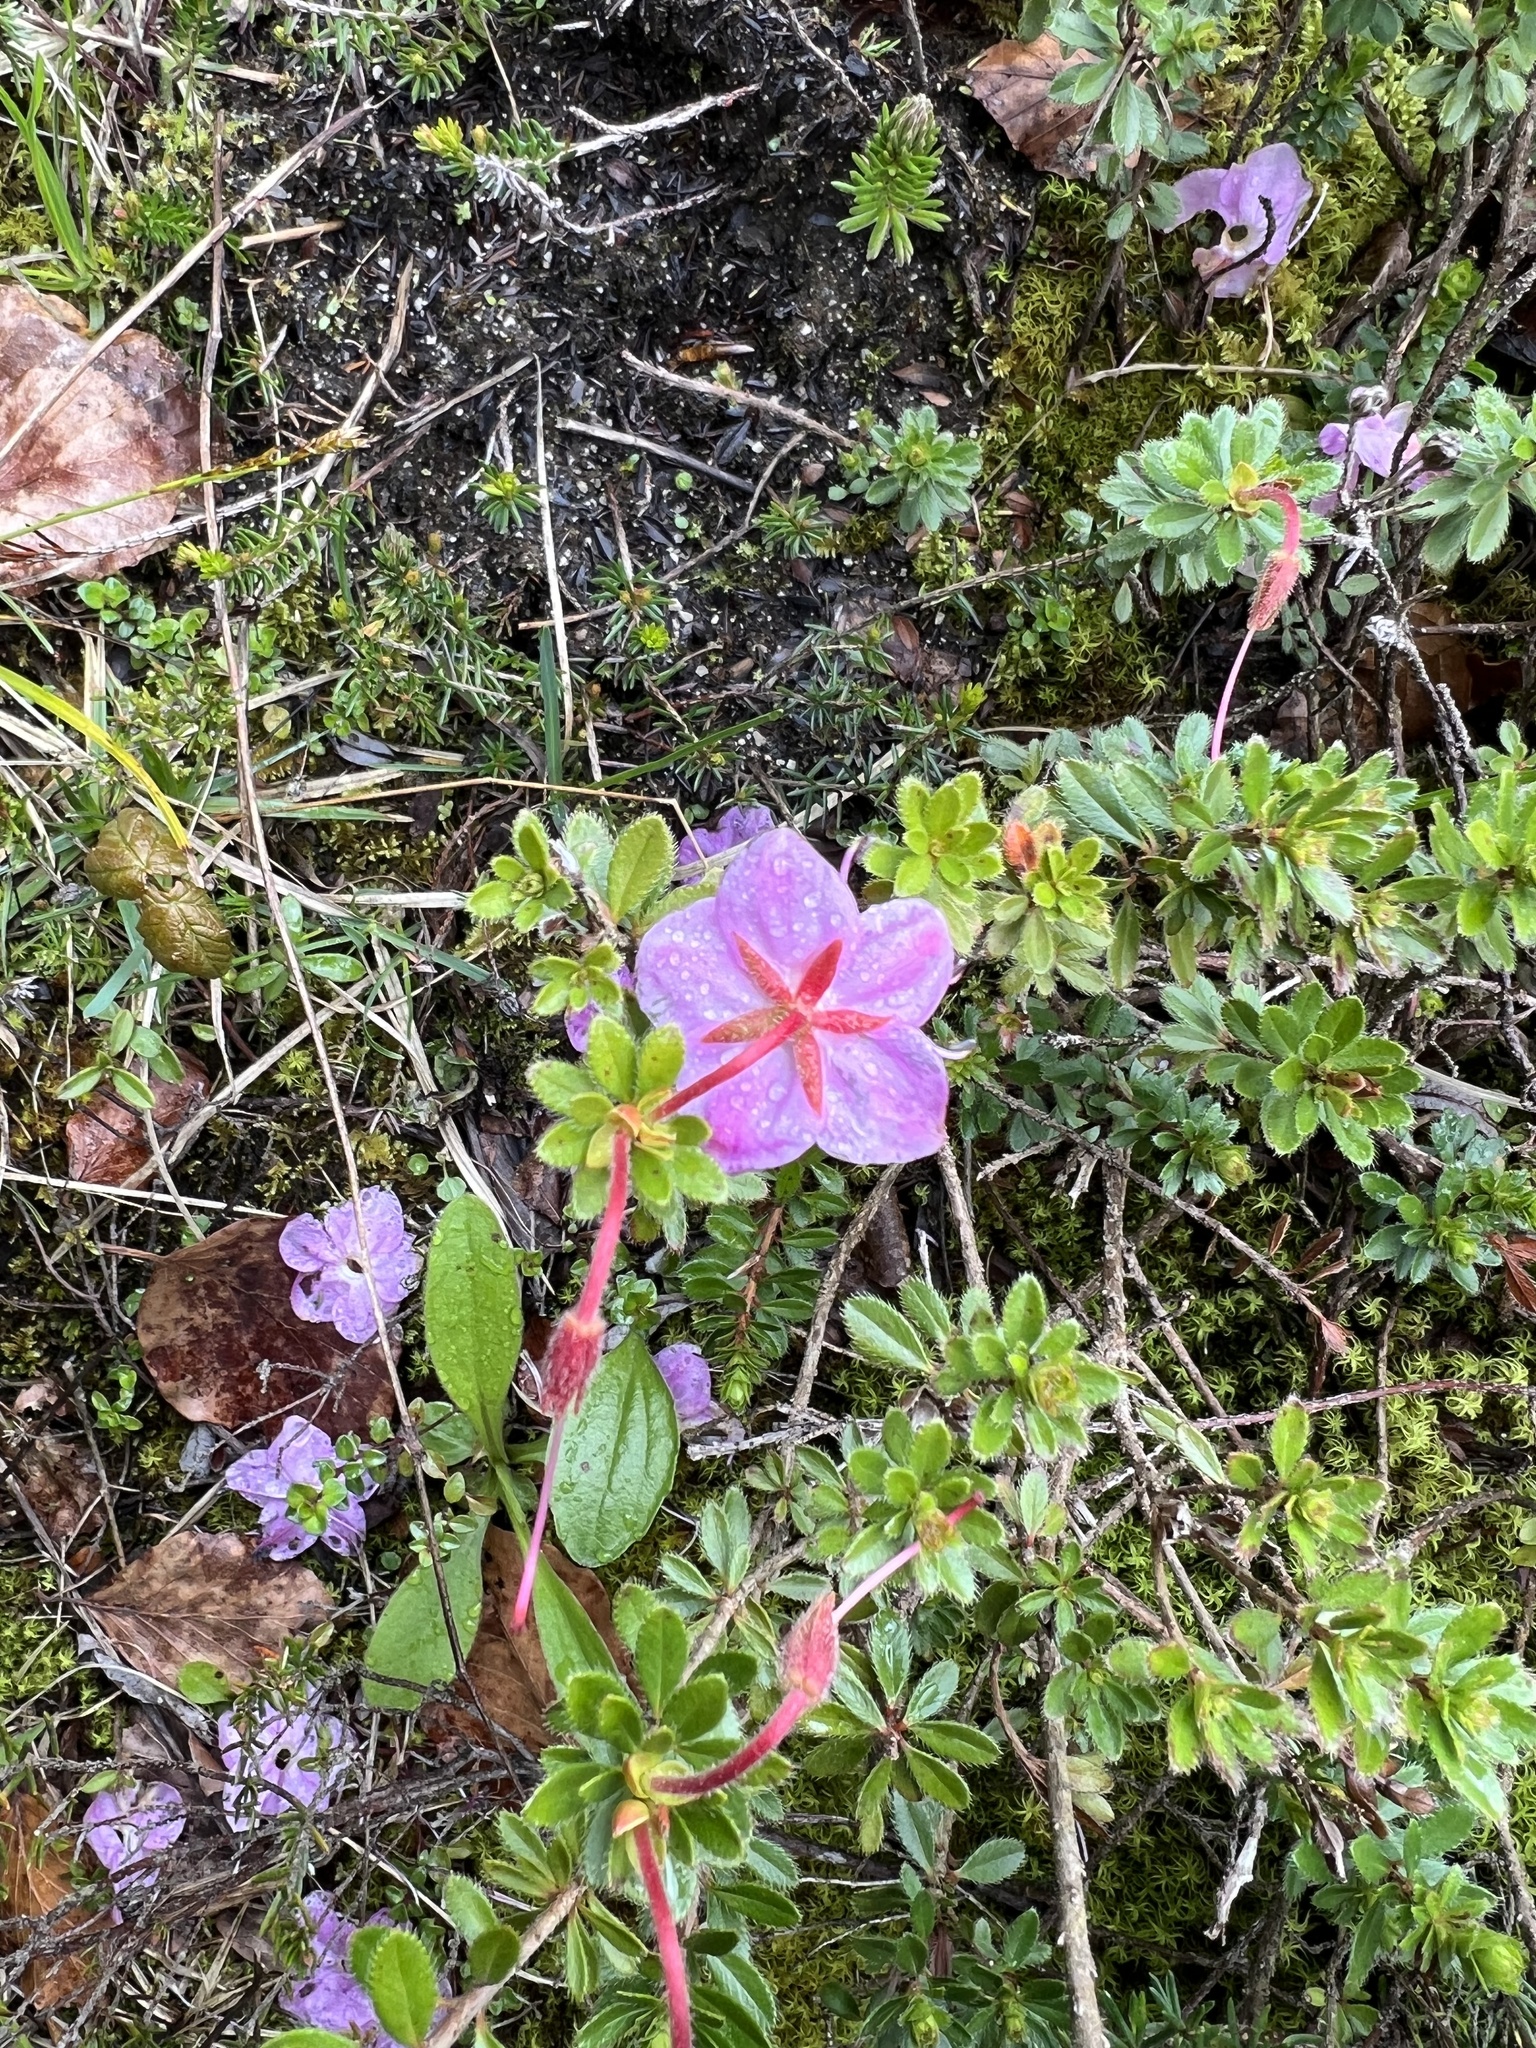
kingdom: Plantae
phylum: Tracheophyta
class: Magnoliopsida
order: Ericales
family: Ericaceae
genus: Rhodothamnus
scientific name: Rhodothamnus chamaecistus
